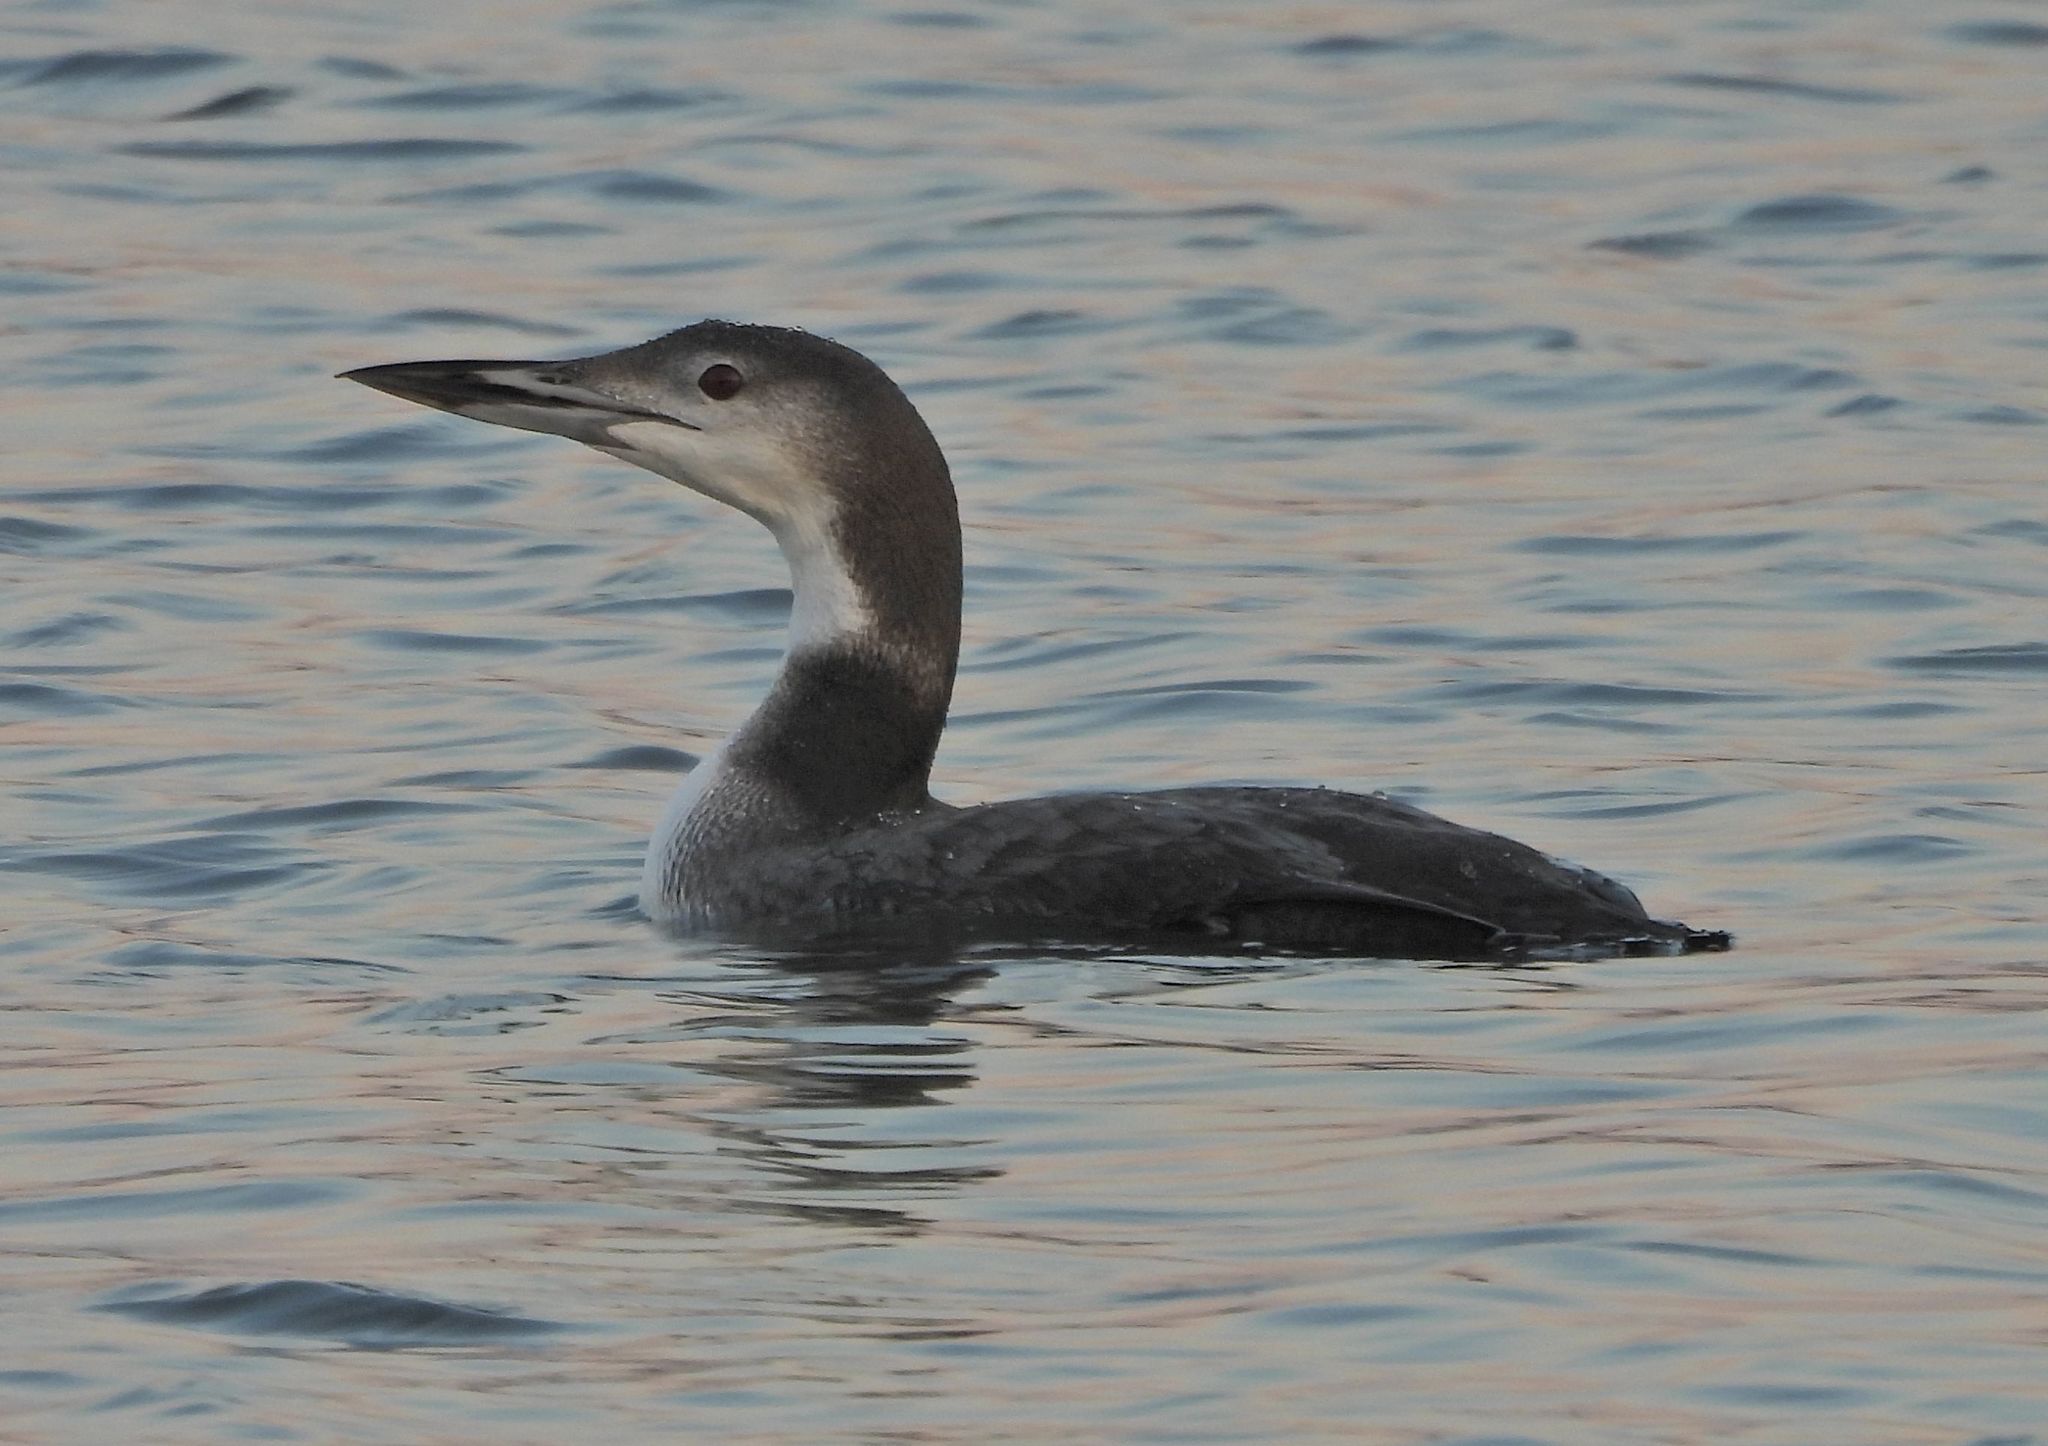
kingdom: Animalia
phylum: Chordata
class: Aves
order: Gaviiformes
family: Gaviidae
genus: Gavia
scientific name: Gavia immer
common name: Common loon
